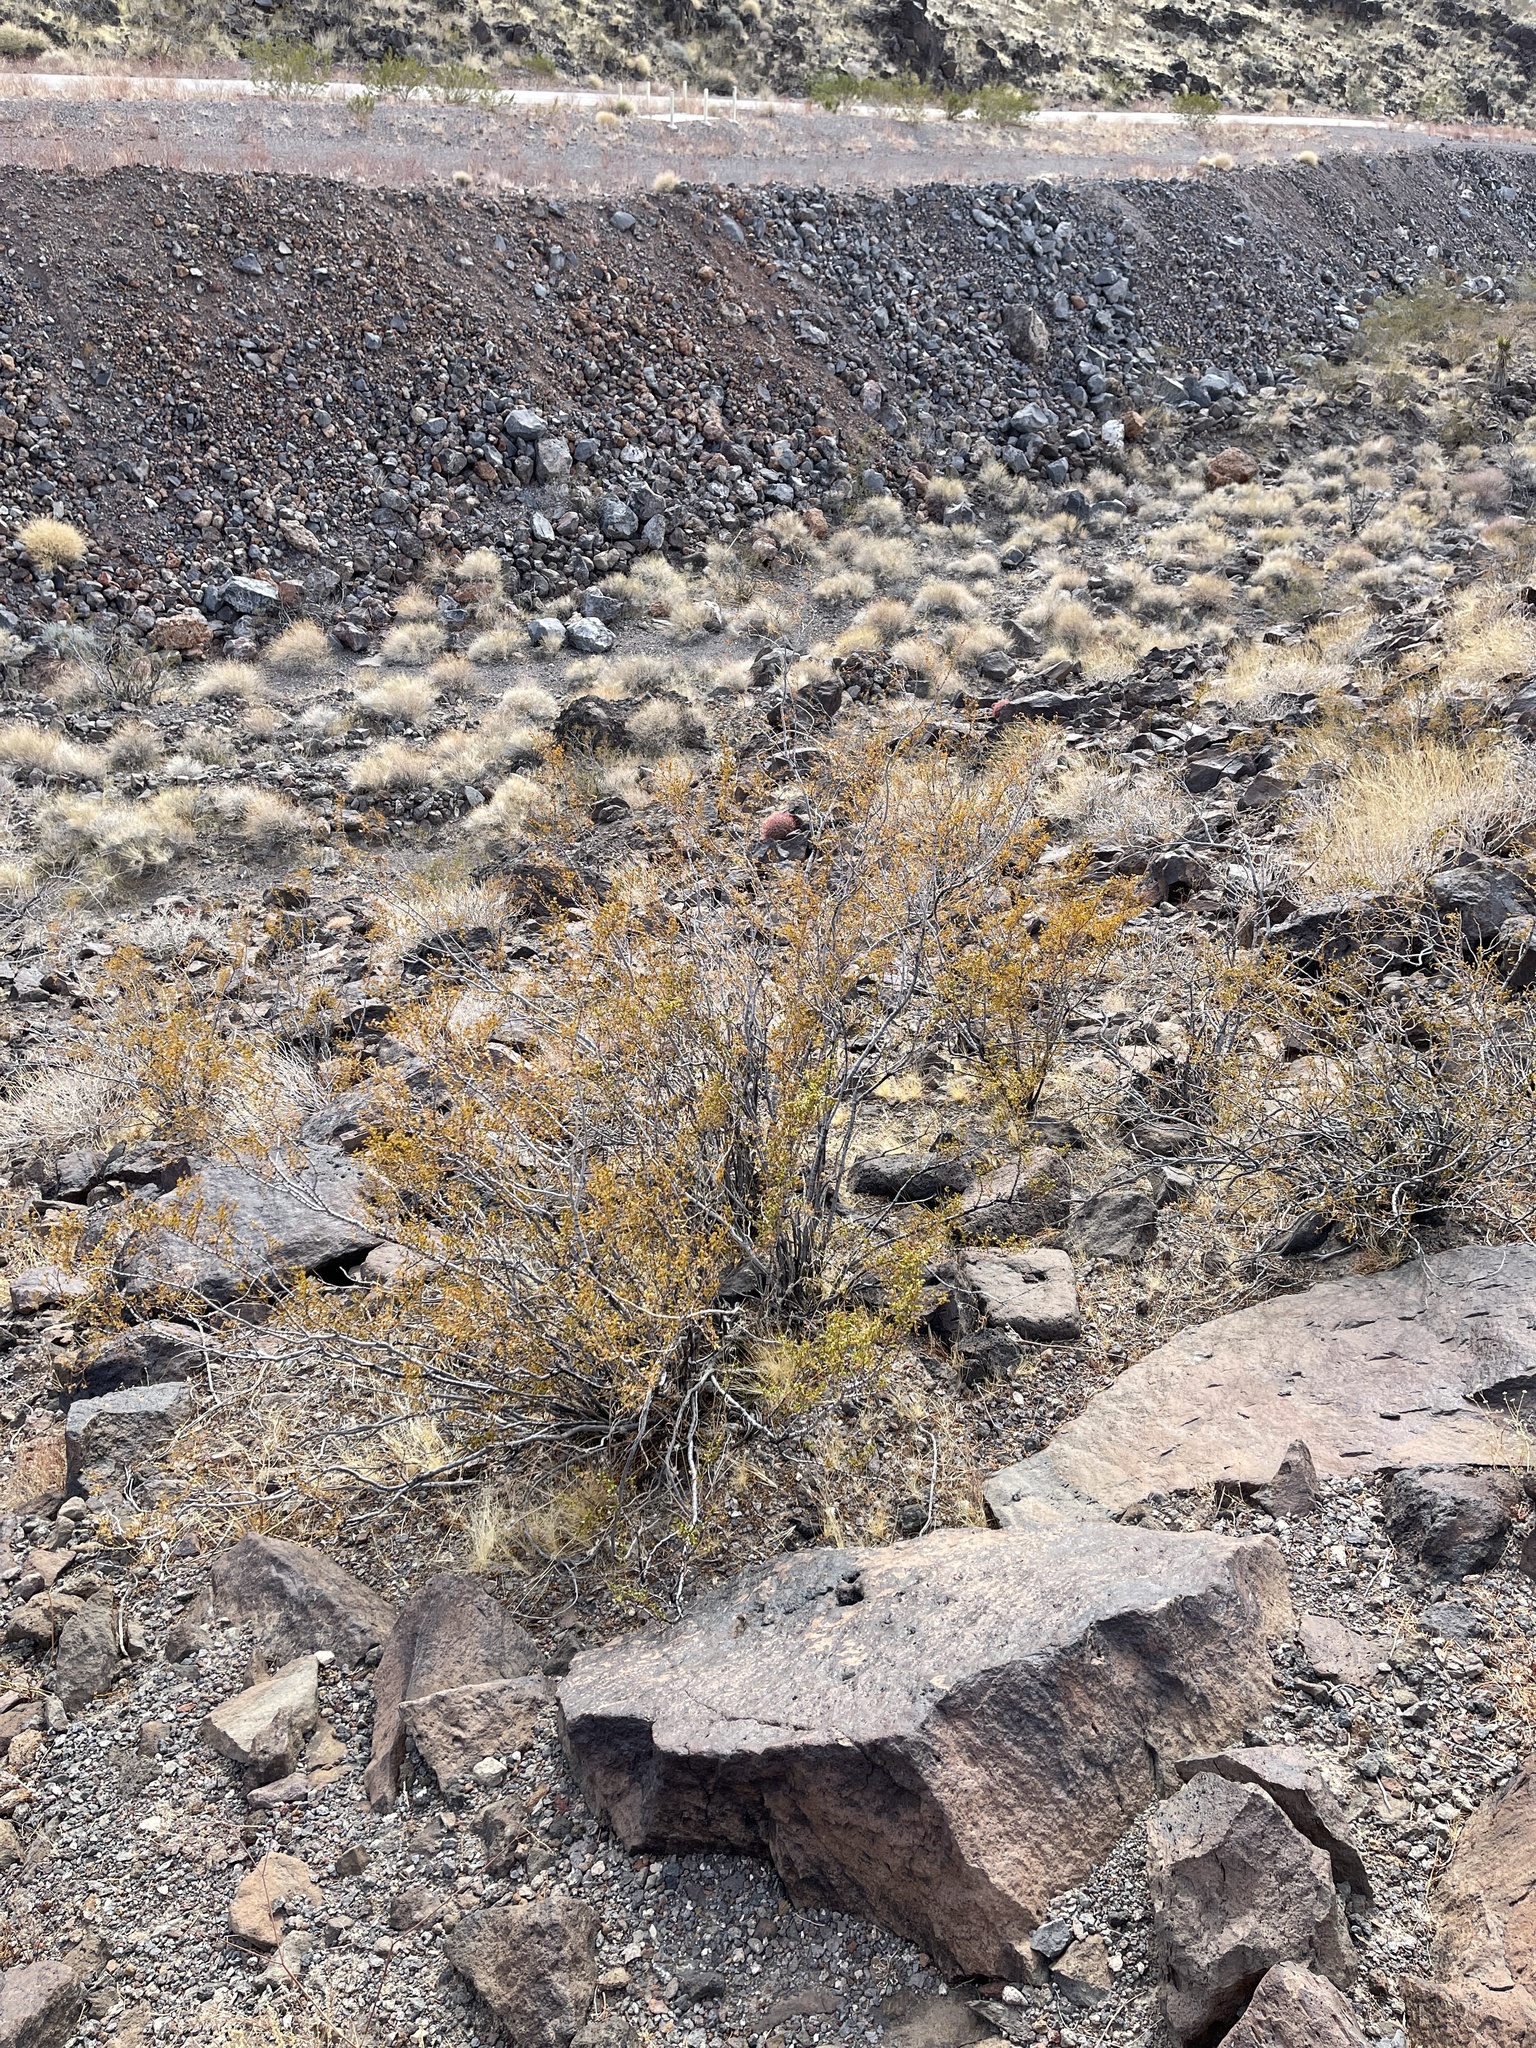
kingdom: Plantae
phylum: Tracheophyta
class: Magnoliopsida
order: Zygophyllales
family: Zygophyllaceae
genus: Larrea
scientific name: Larrea tridentata
